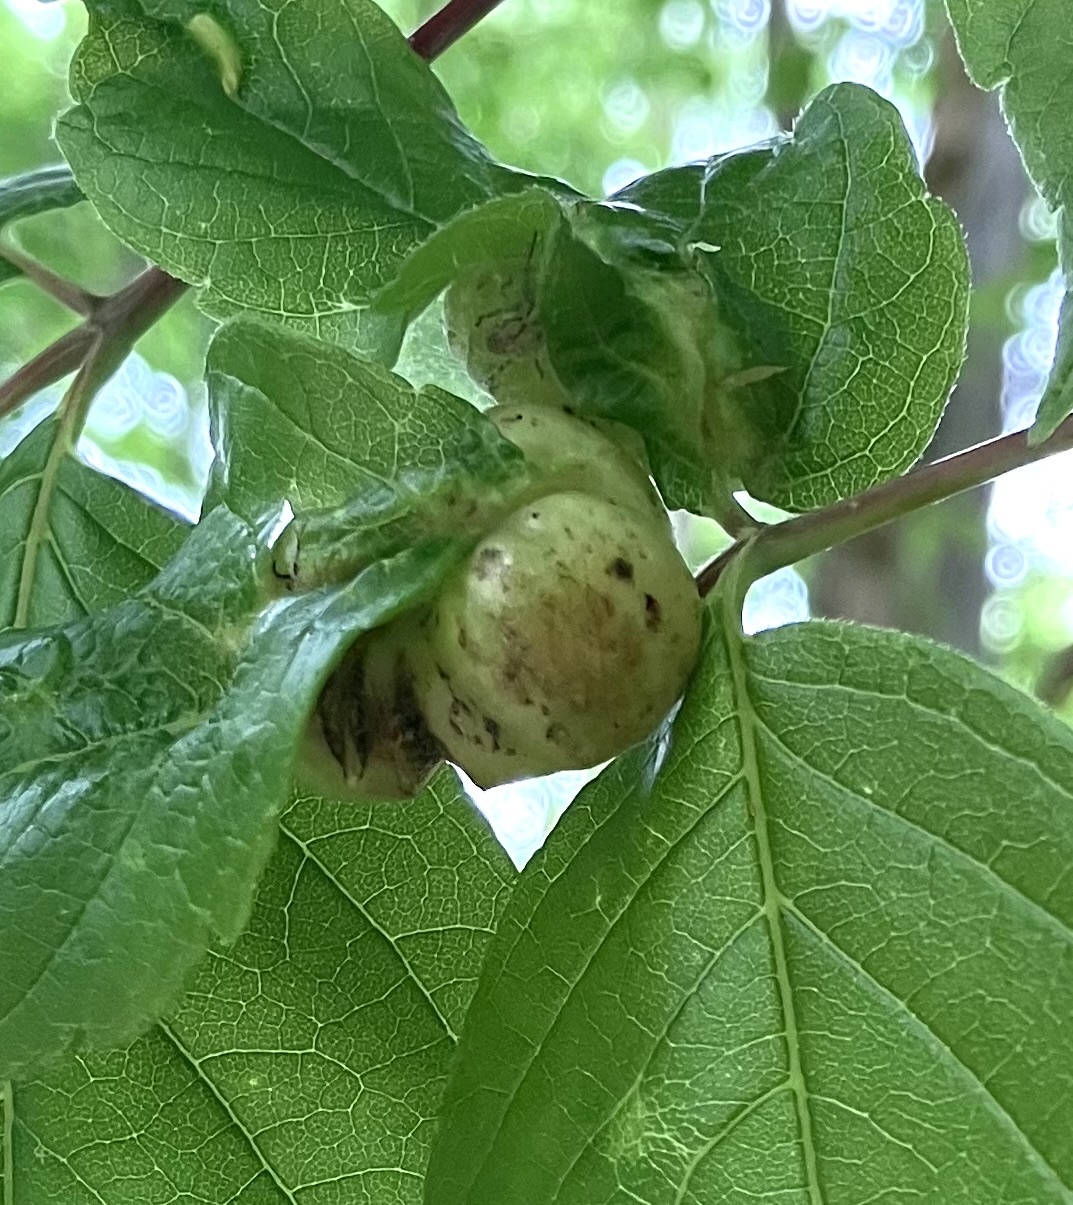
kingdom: Animalia
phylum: Arthropoda
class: Insecta
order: Diptera
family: Cecidomyiidae
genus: Contarinia
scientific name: Contarinia negundinis
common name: Boxelder budgall midge
